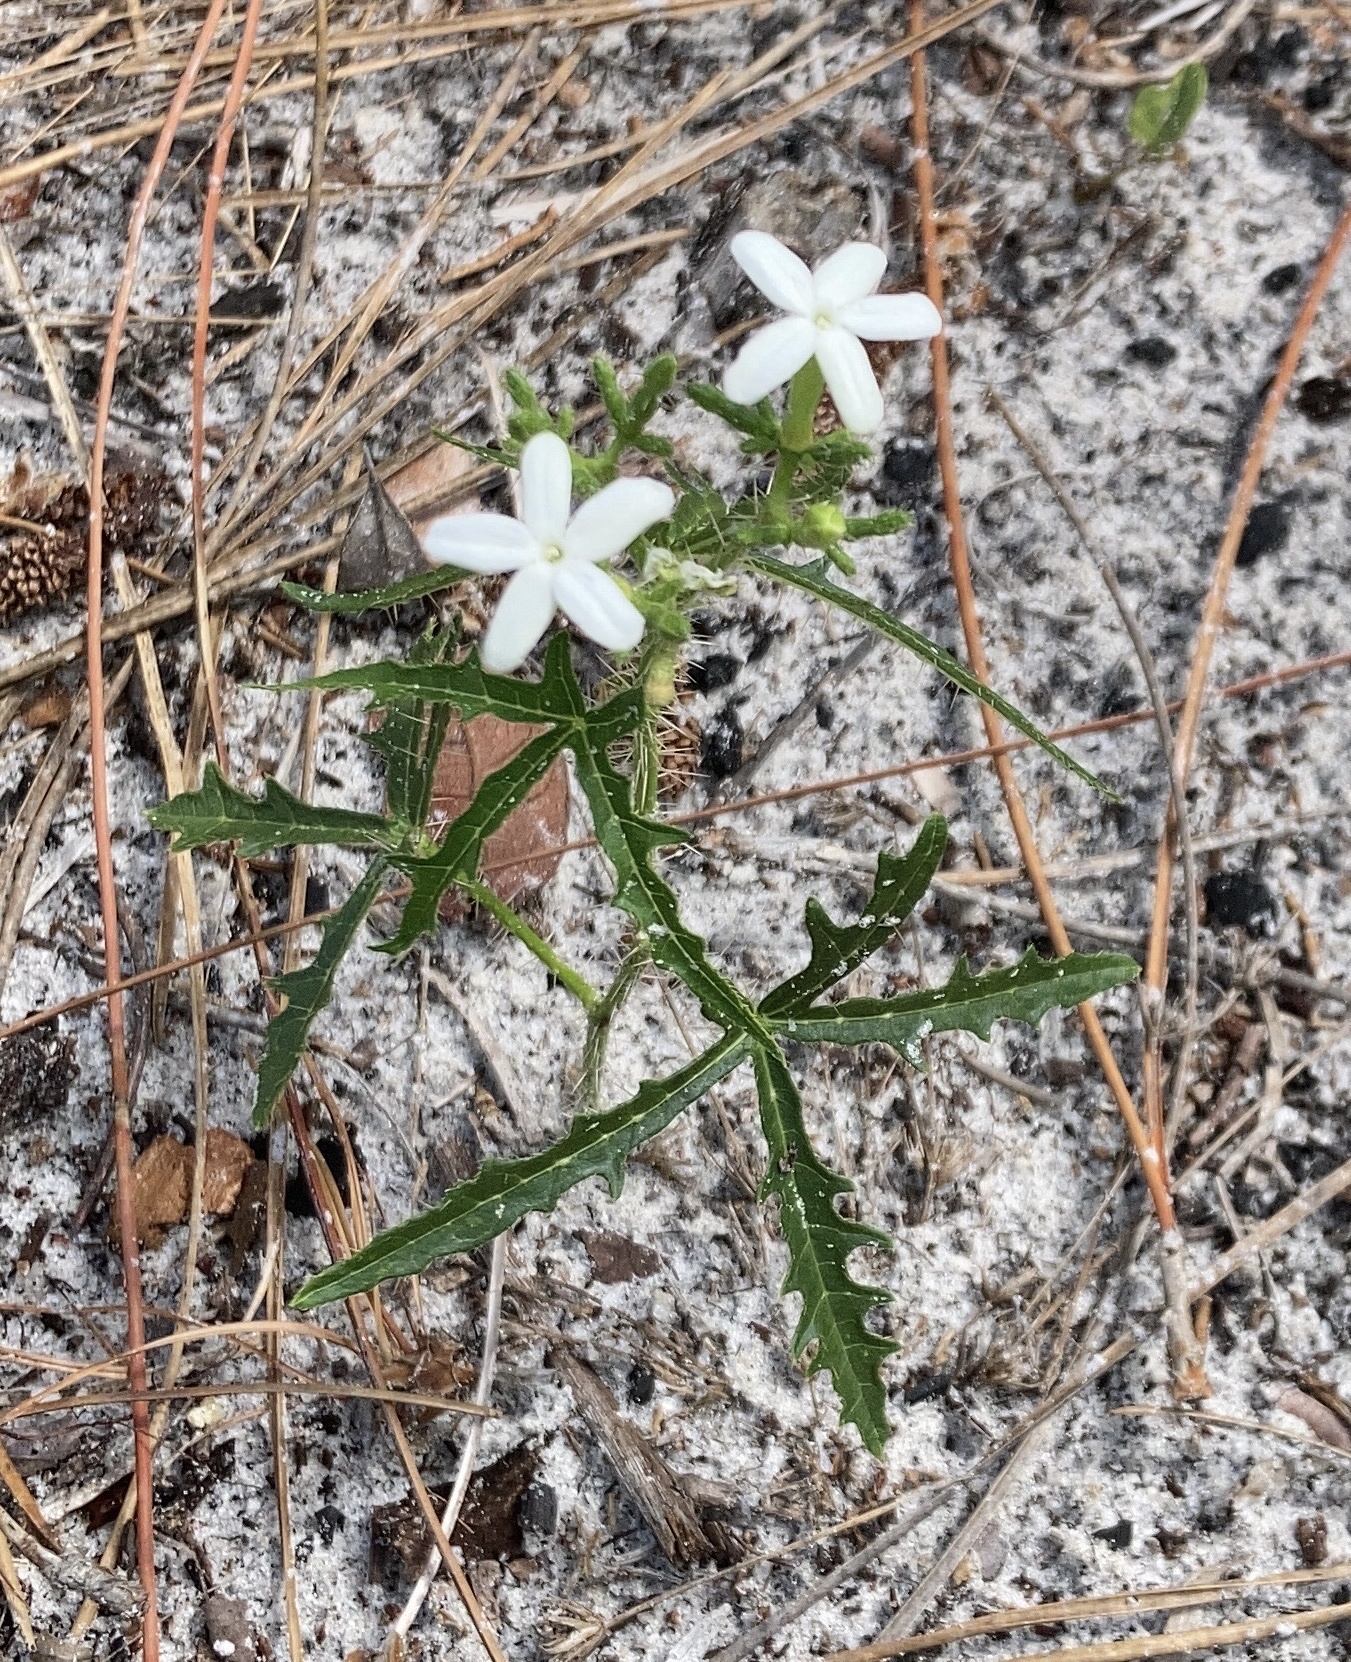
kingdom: Plantae
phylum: Tracheophyta
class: Magnoliopsida
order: Malpighiales
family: Euphorbiaceae
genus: Cnidoscolus
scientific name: Cnidoscolus stimulosus
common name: Bull-nettle
